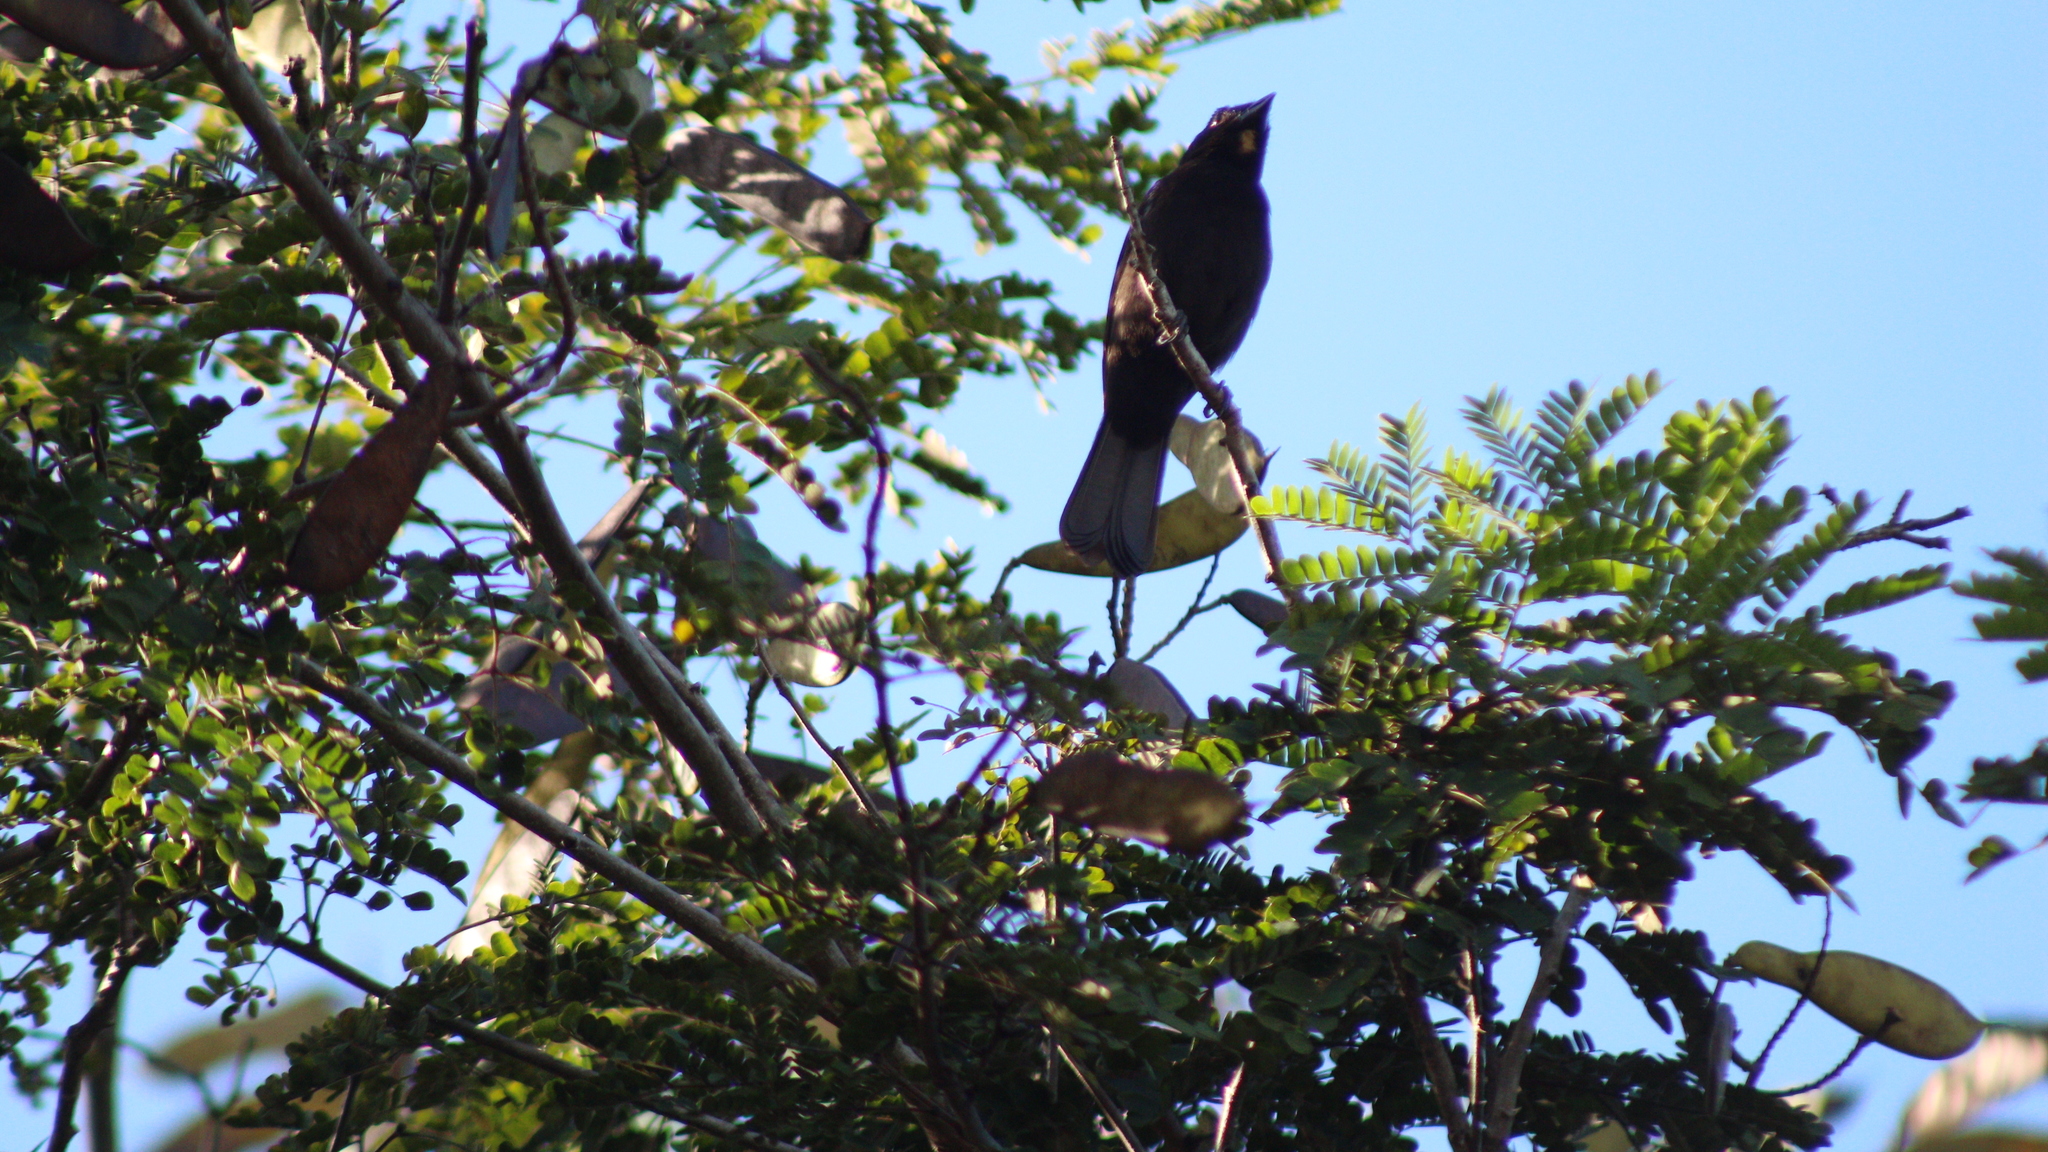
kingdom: Animalia
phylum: Chordata
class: Aves
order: Passeriformes
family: Thraupidae
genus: Loriotus
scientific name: Loriotus cristatus
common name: Flame-crested tanager
